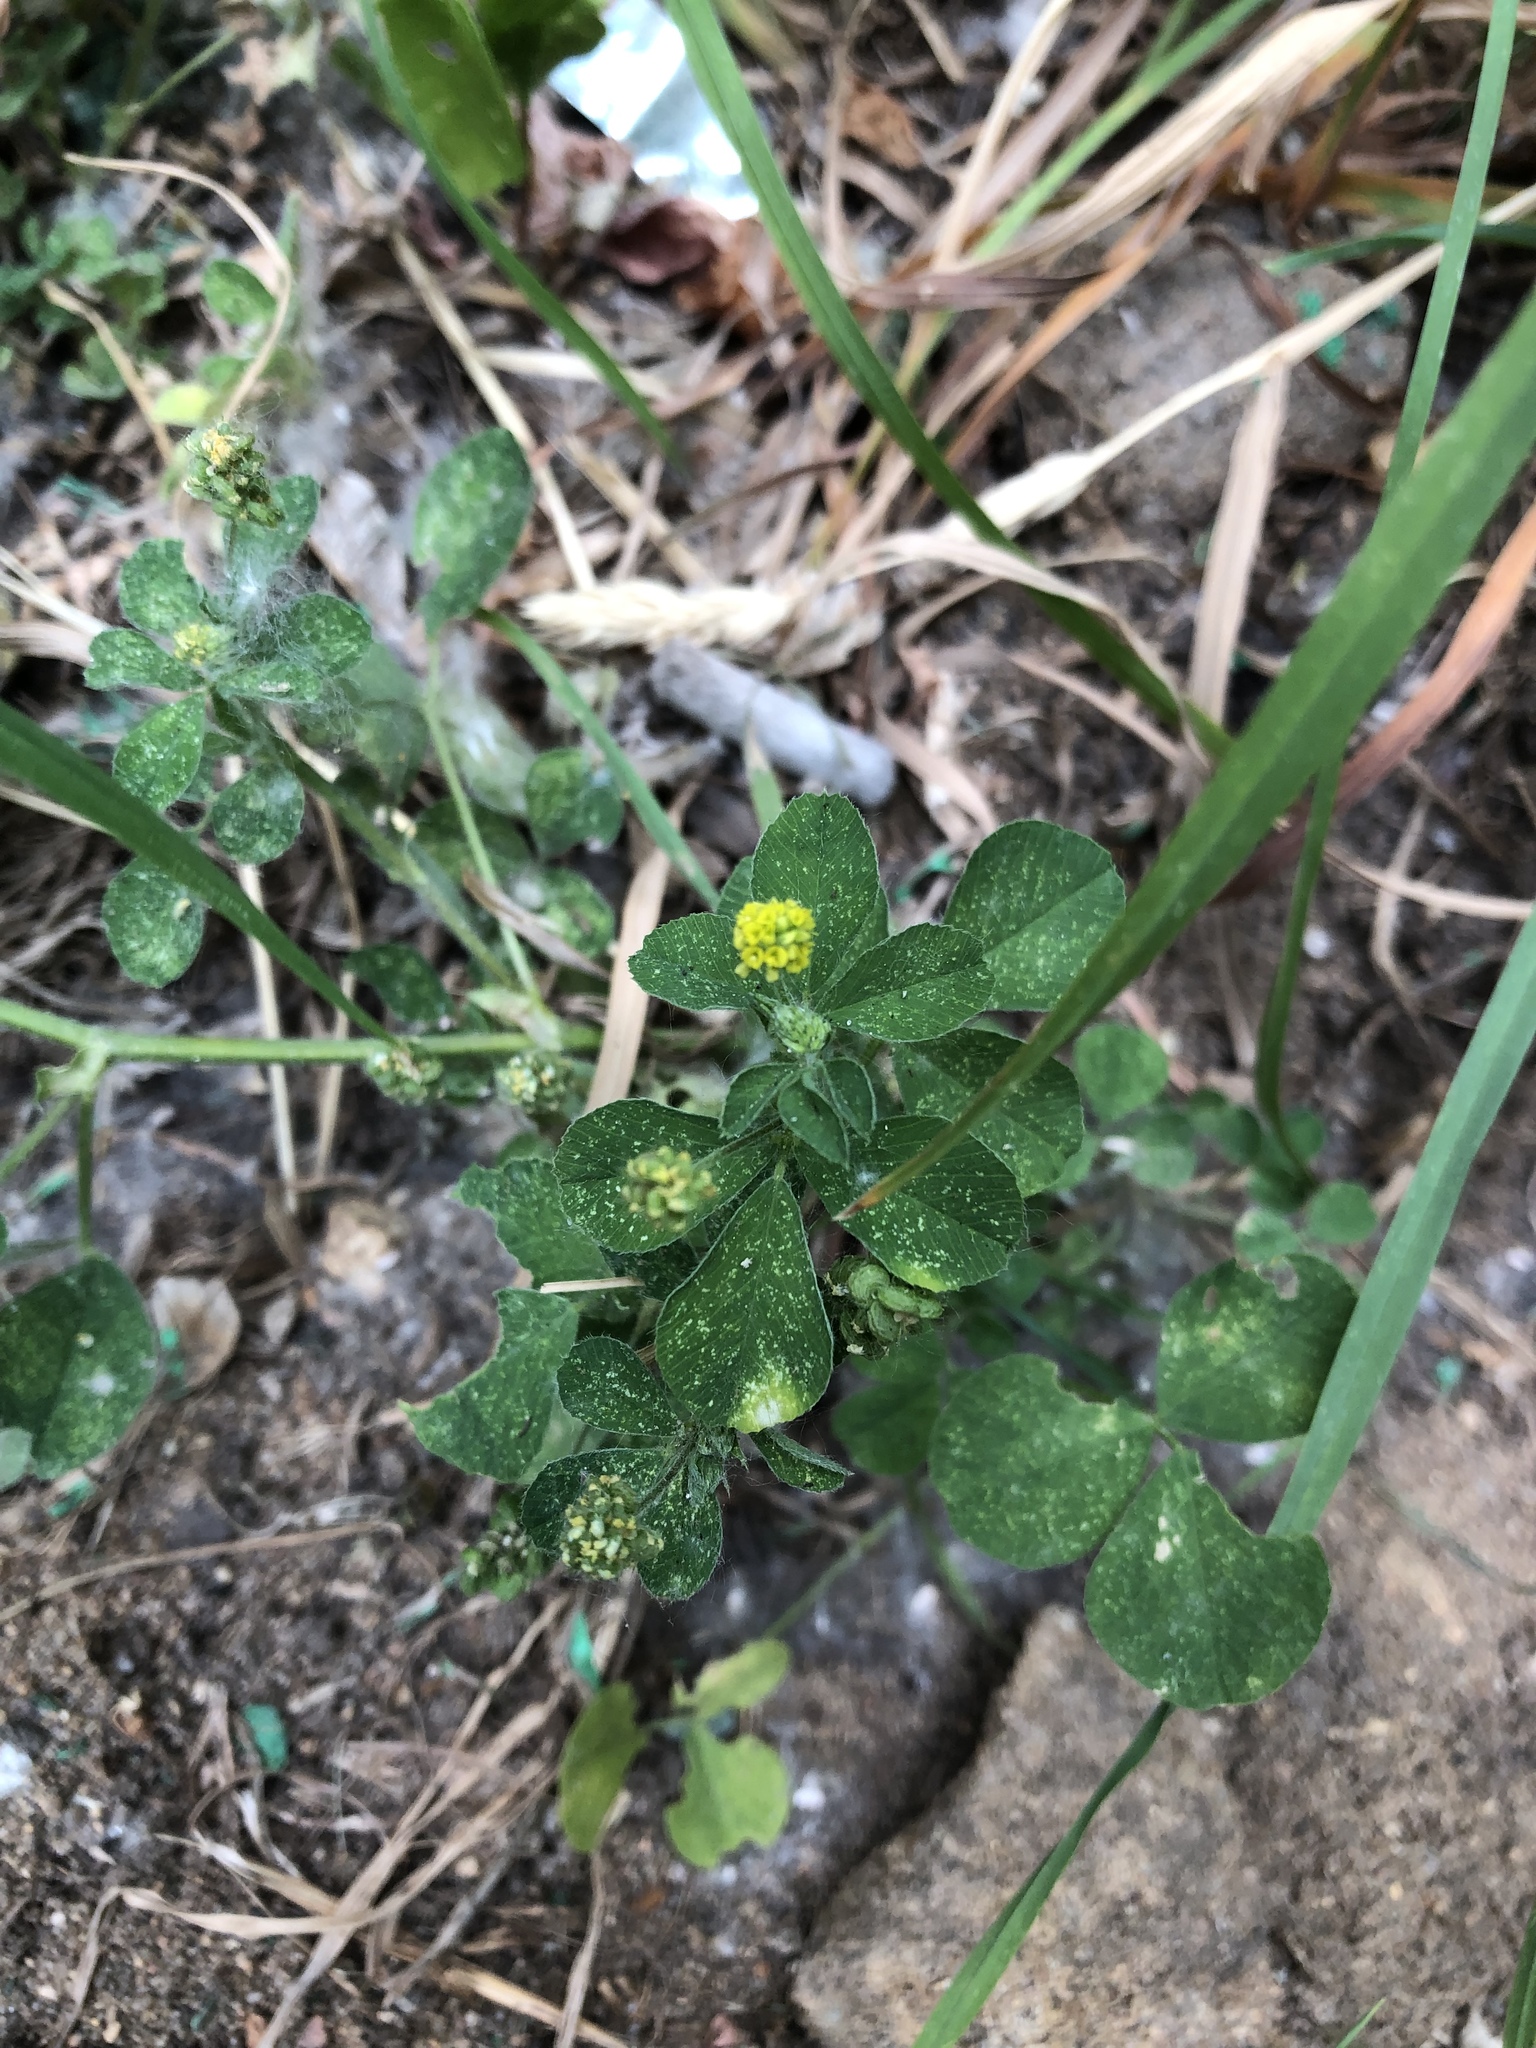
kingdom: Plantae
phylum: Tracheophyta
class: Magnoliopsida
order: Fabales
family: Fabaceae
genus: Medicago
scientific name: Medicago lupulina
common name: Black medick
